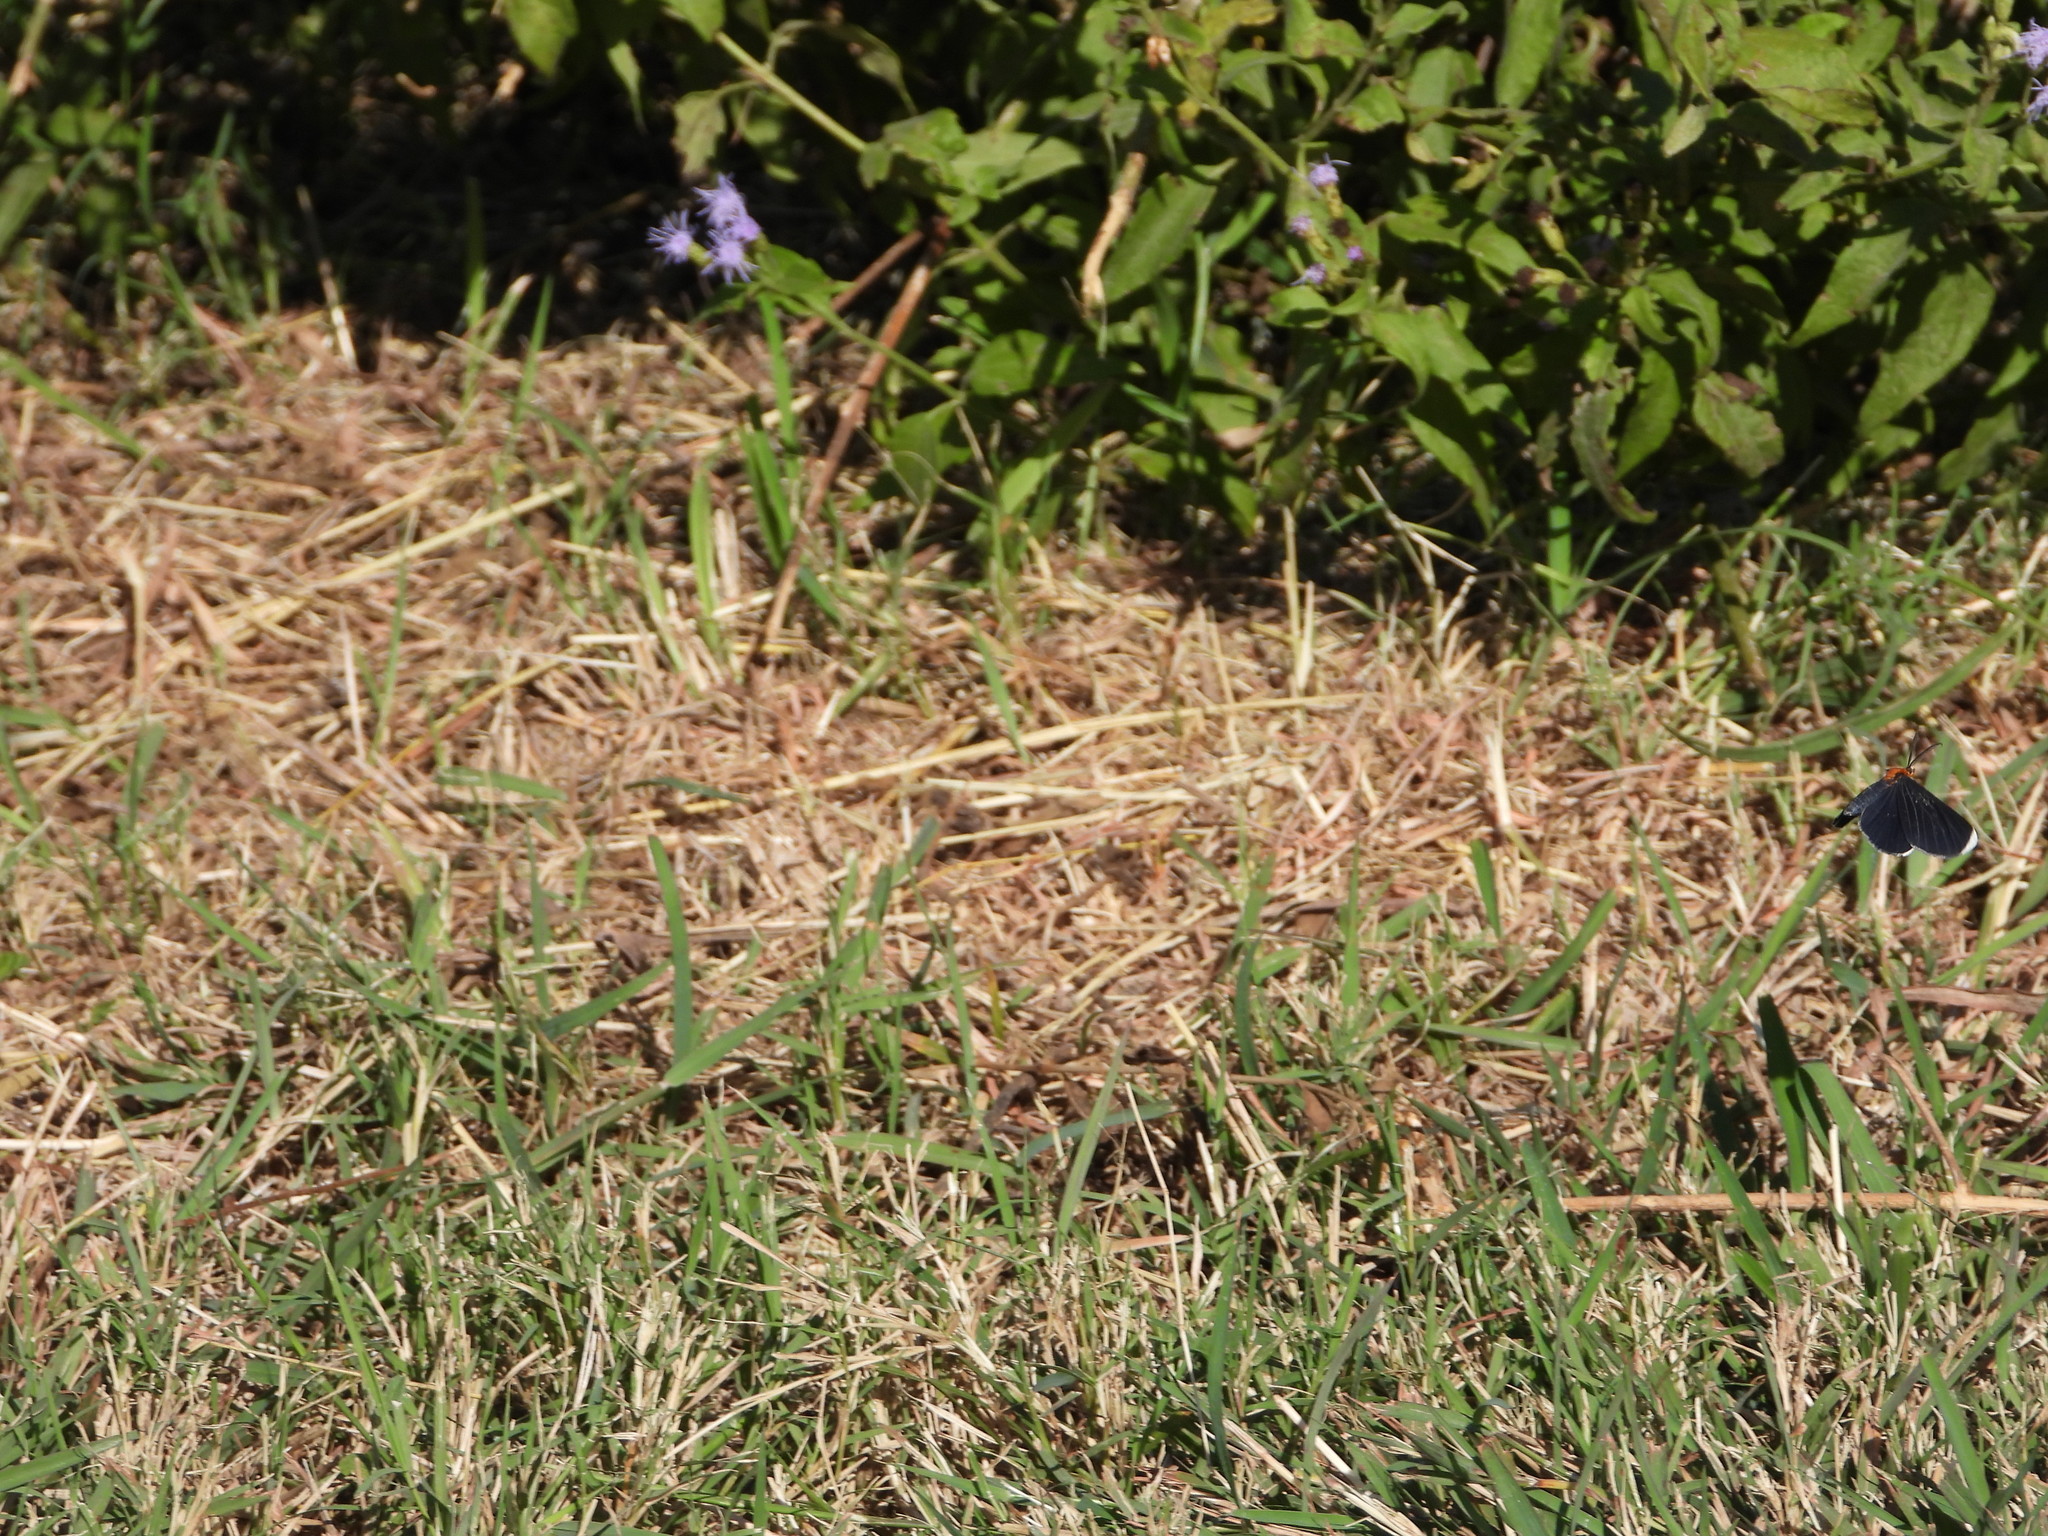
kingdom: Animalia
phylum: Arthropoda
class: Insecta
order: Lepidoptera
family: Geometridae
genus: Melanchroia
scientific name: Melanchroia chephise
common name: White-tipped black
